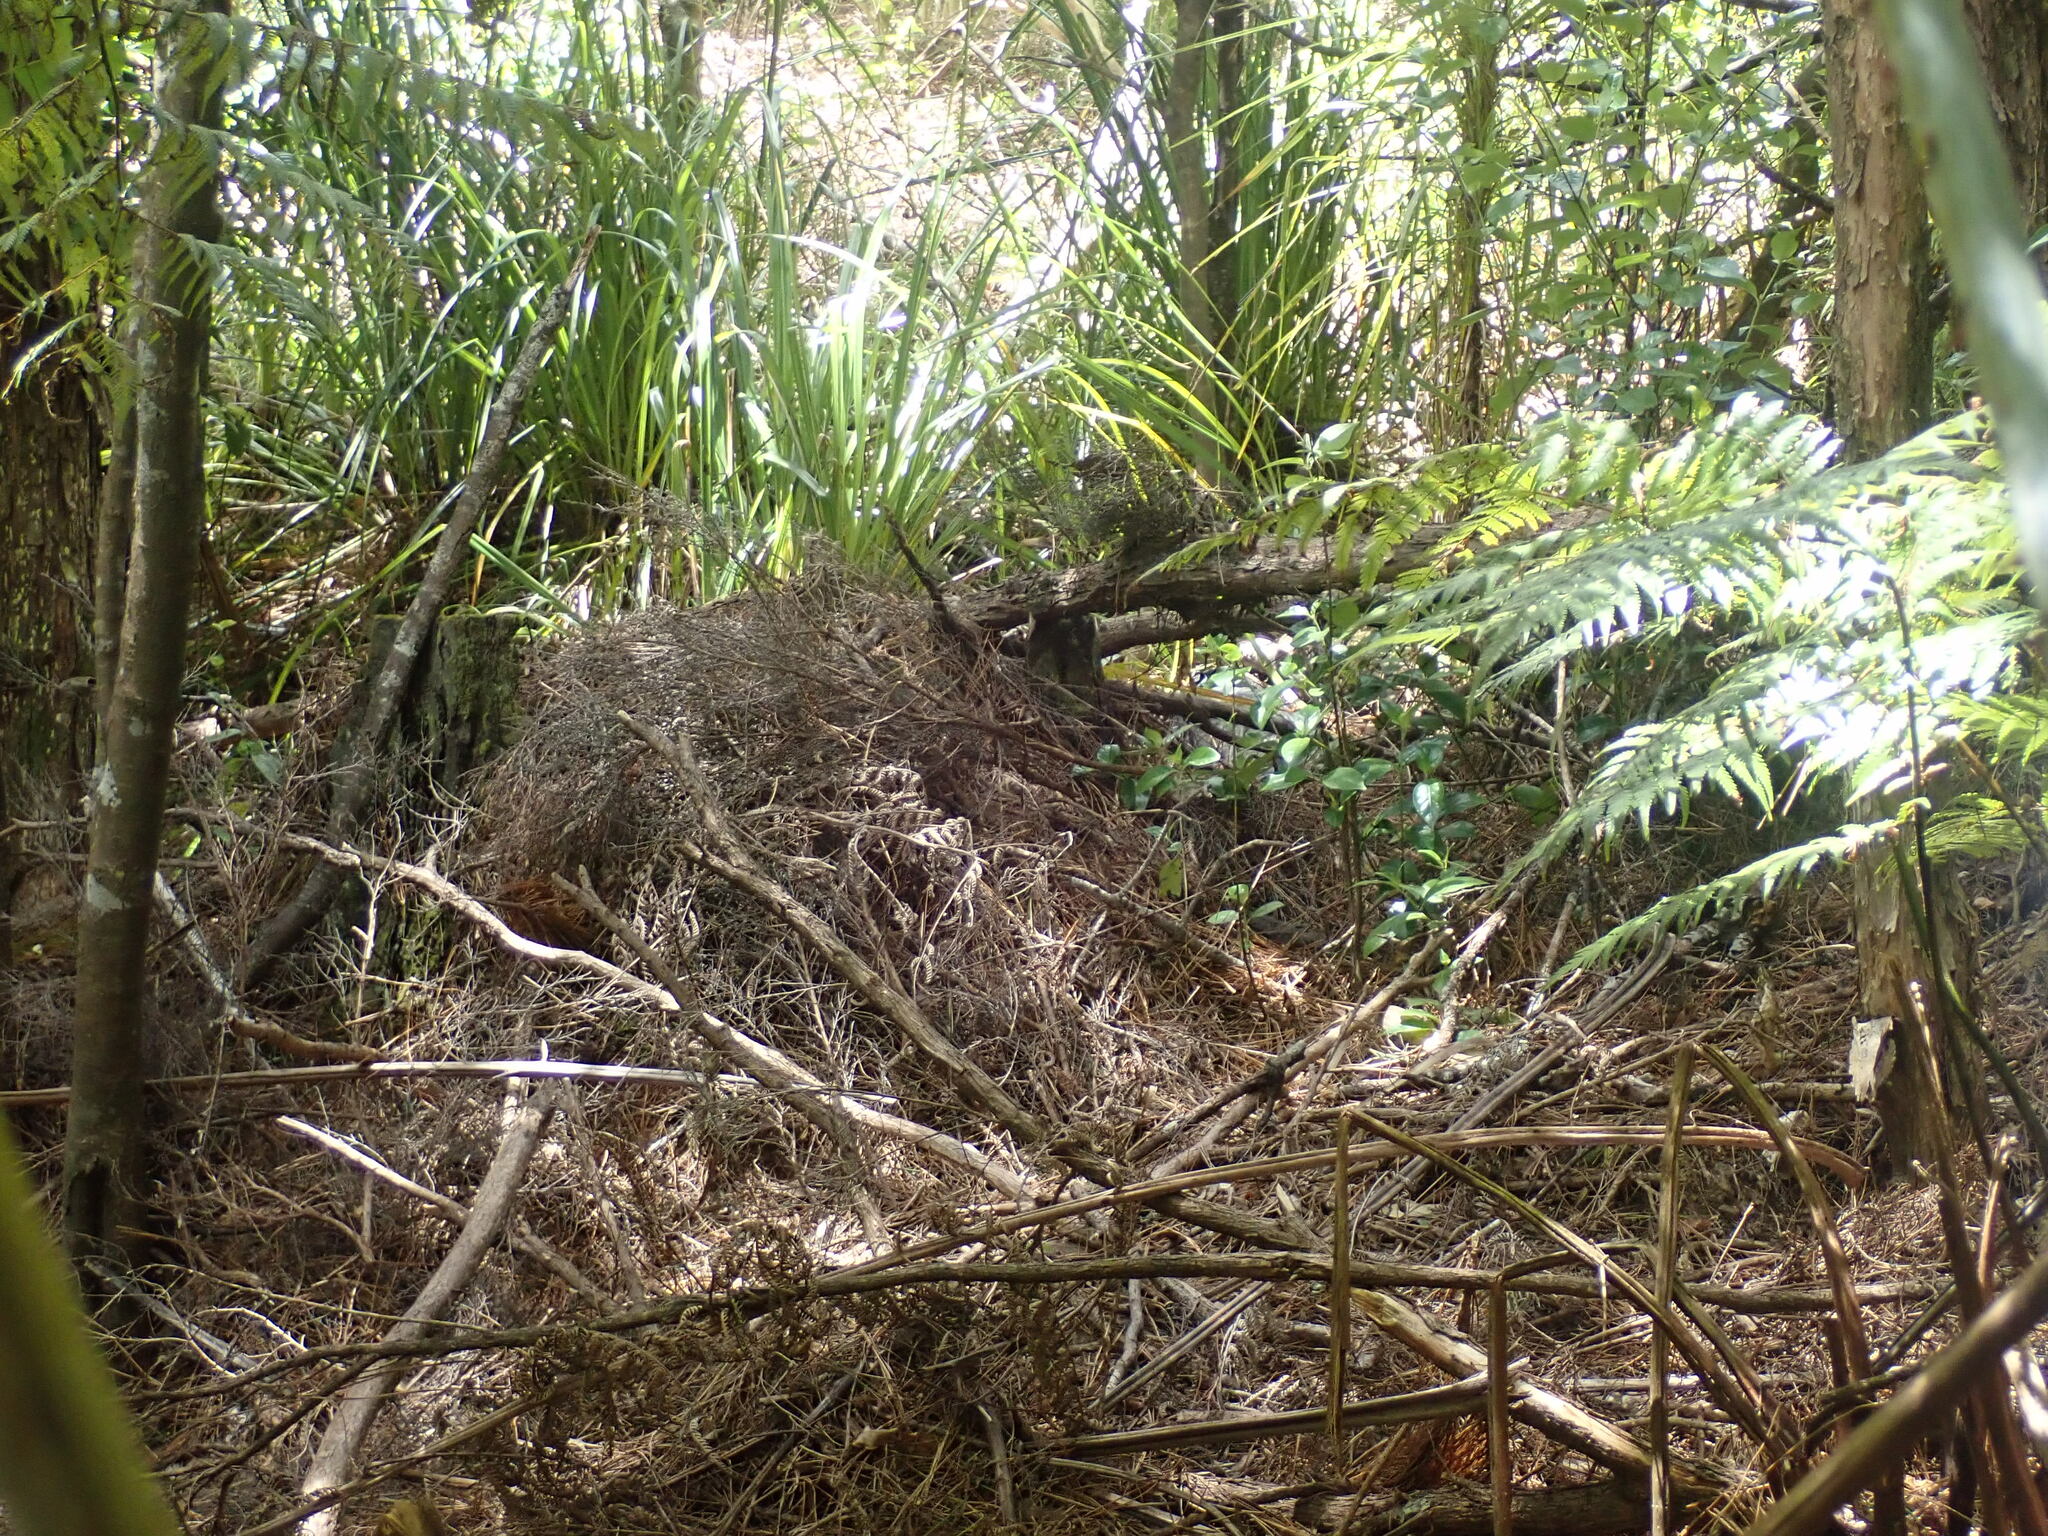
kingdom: Plantae
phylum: Tracheophyta
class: Liliopsida
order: Poales
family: Cyperaceae
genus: Gahnia
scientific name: Gahnia xanthocarpa
